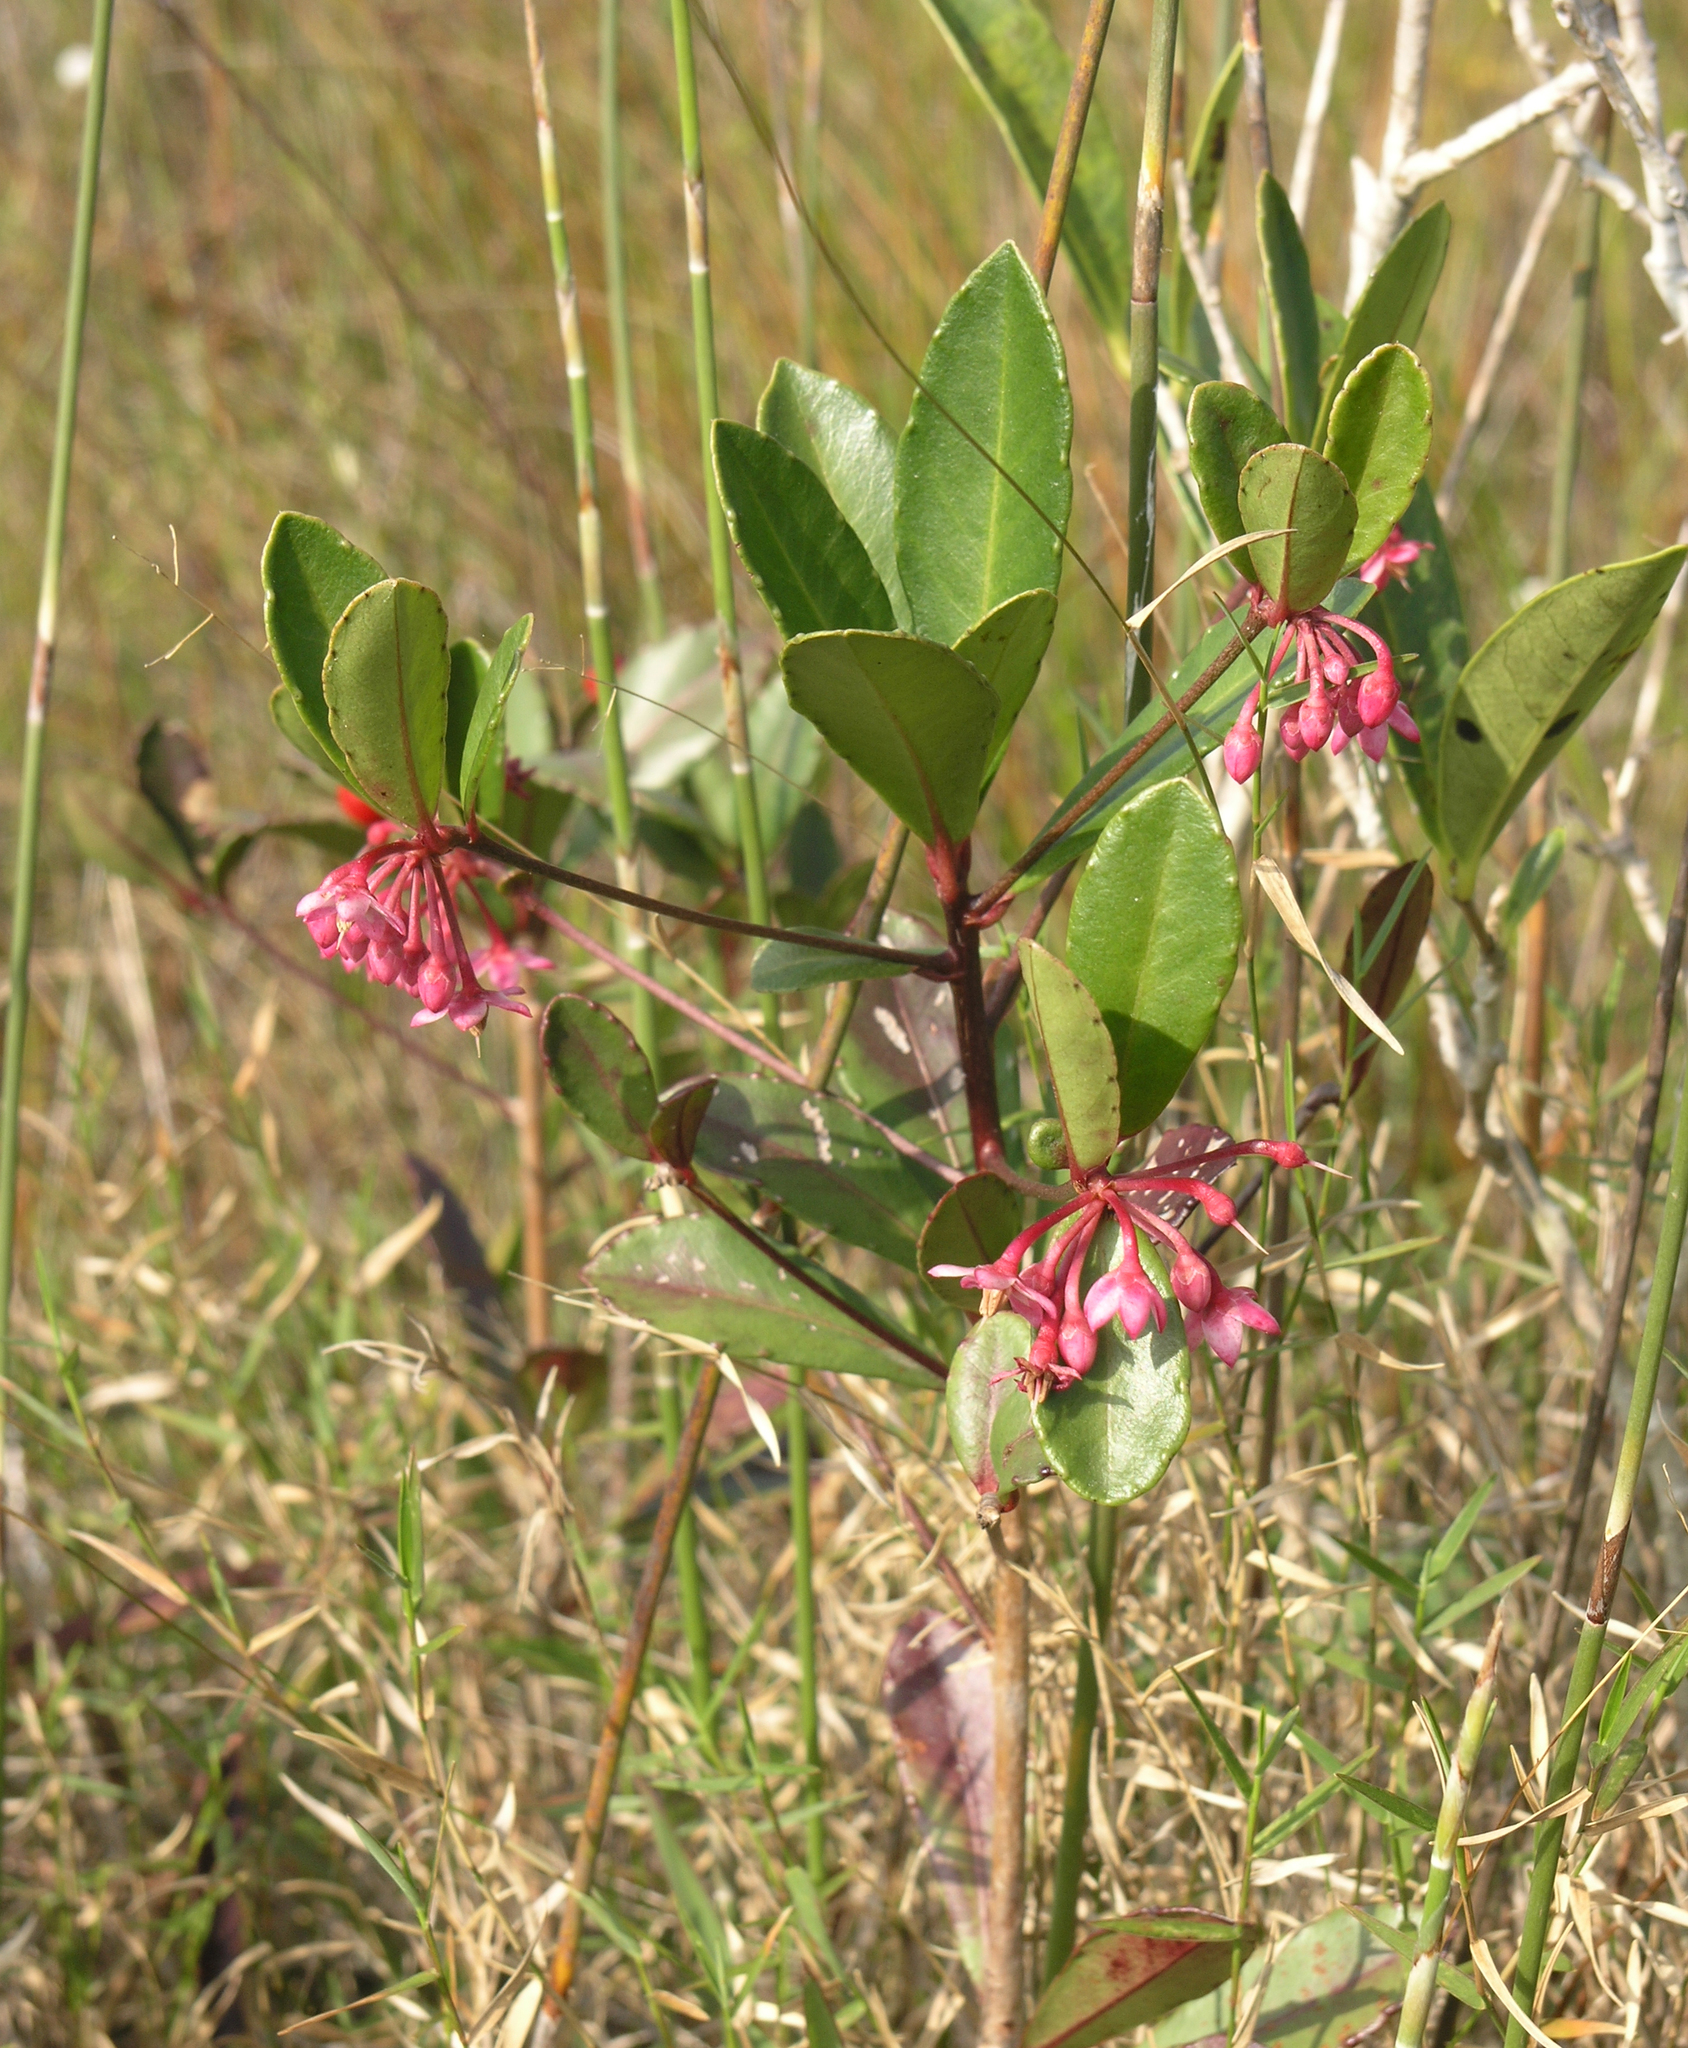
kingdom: Plantae
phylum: Tracheophyta
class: Magnoliopsida
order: Ericales
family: Primulaceae
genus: Ardisia
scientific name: Ardisia crenata
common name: Hen's eyes
